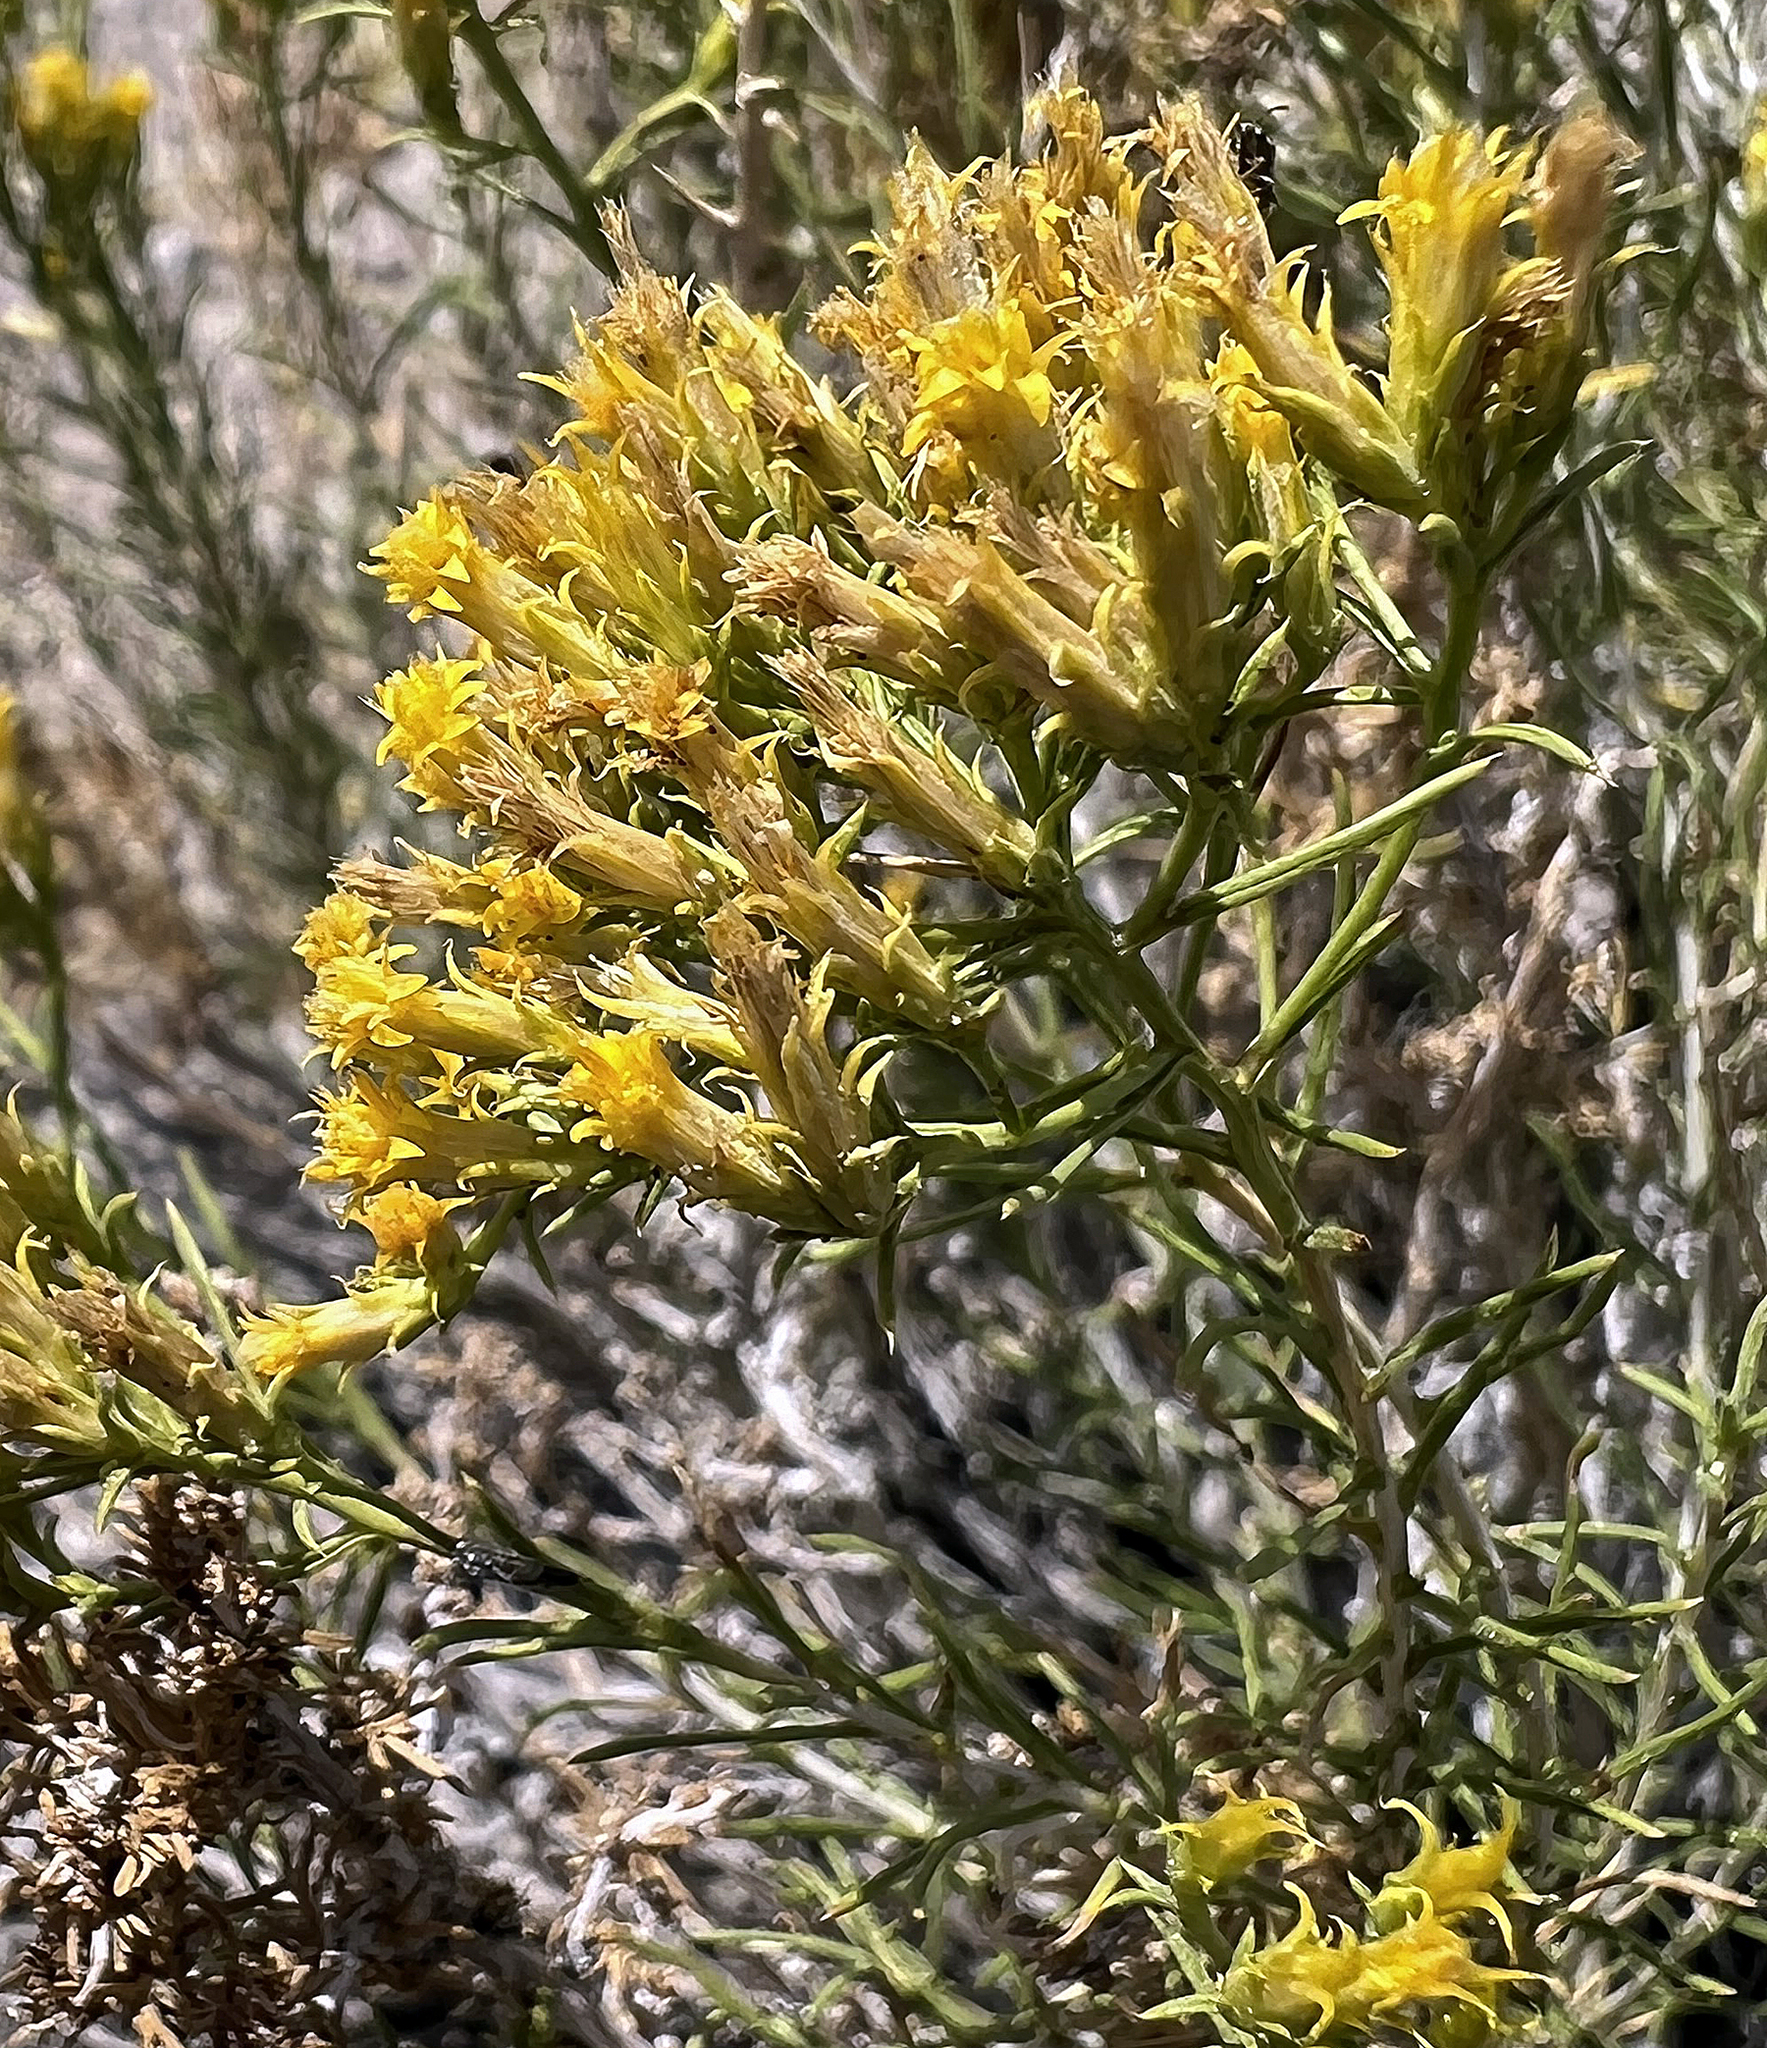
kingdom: Plantae
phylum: Tracheophyta
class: Magnoliopsida
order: Asterales
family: Asteraceae
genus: Chrysothamnus
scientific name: Chrysothamnus greenei
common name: Greene's rabbitbrush
